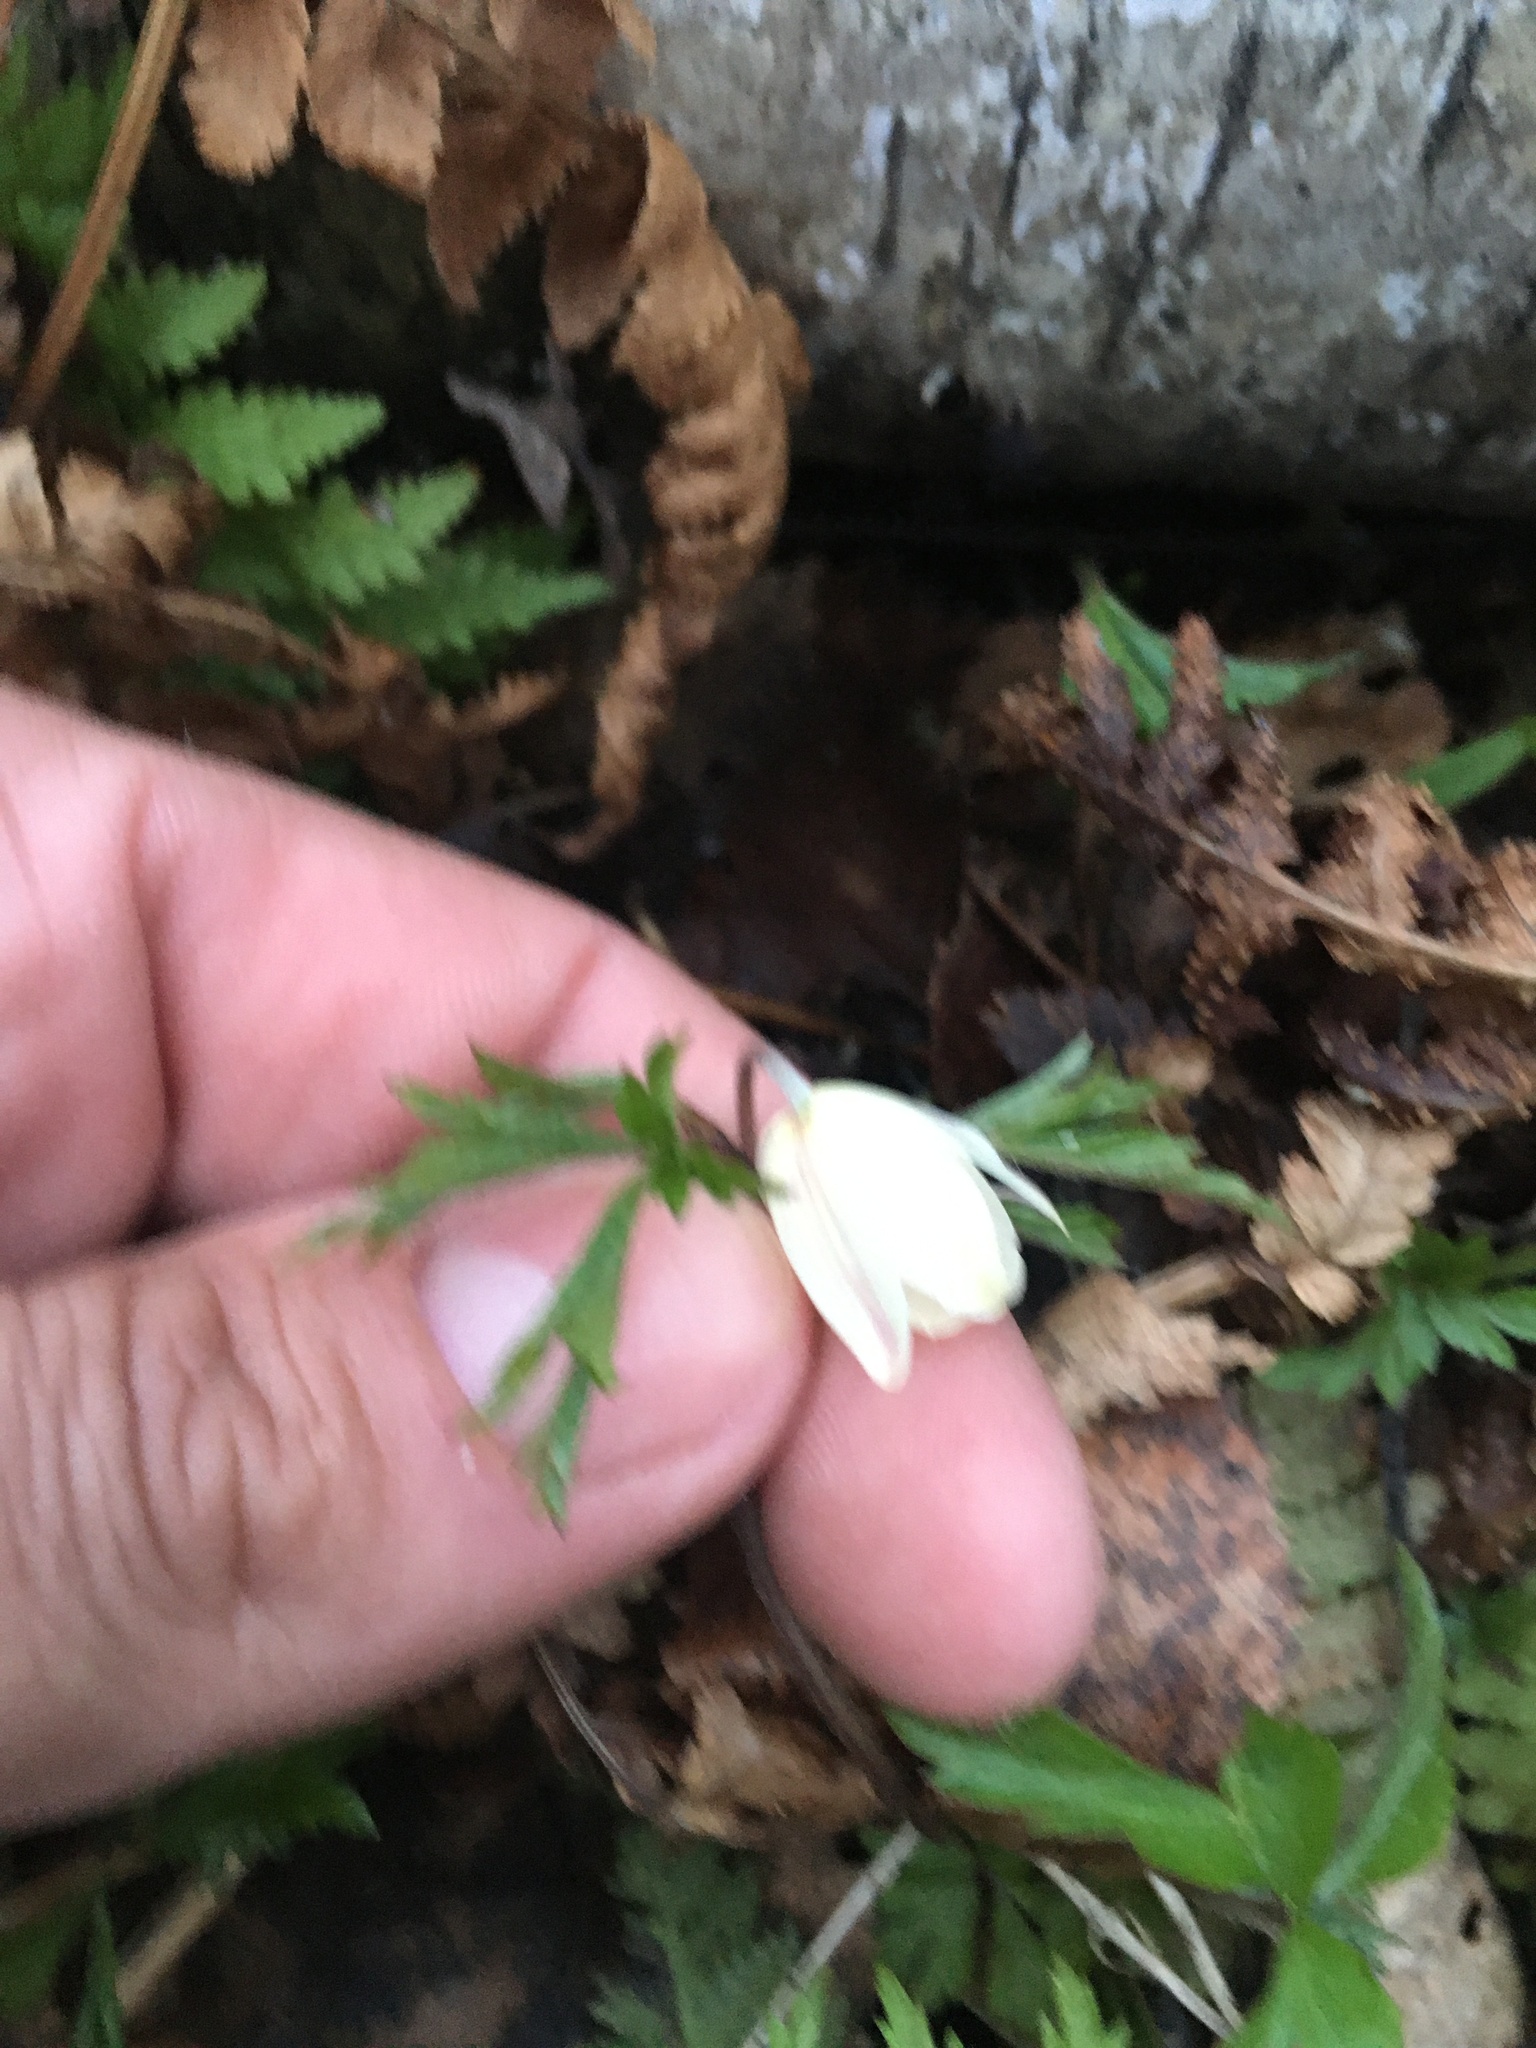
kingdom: Plantae
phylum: Tracheophyta
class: Magnoliopsida
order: Ranunculales
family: Ranunculaceae
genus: Anemone
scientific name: Anemone nemorosa
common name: Wood anemone
